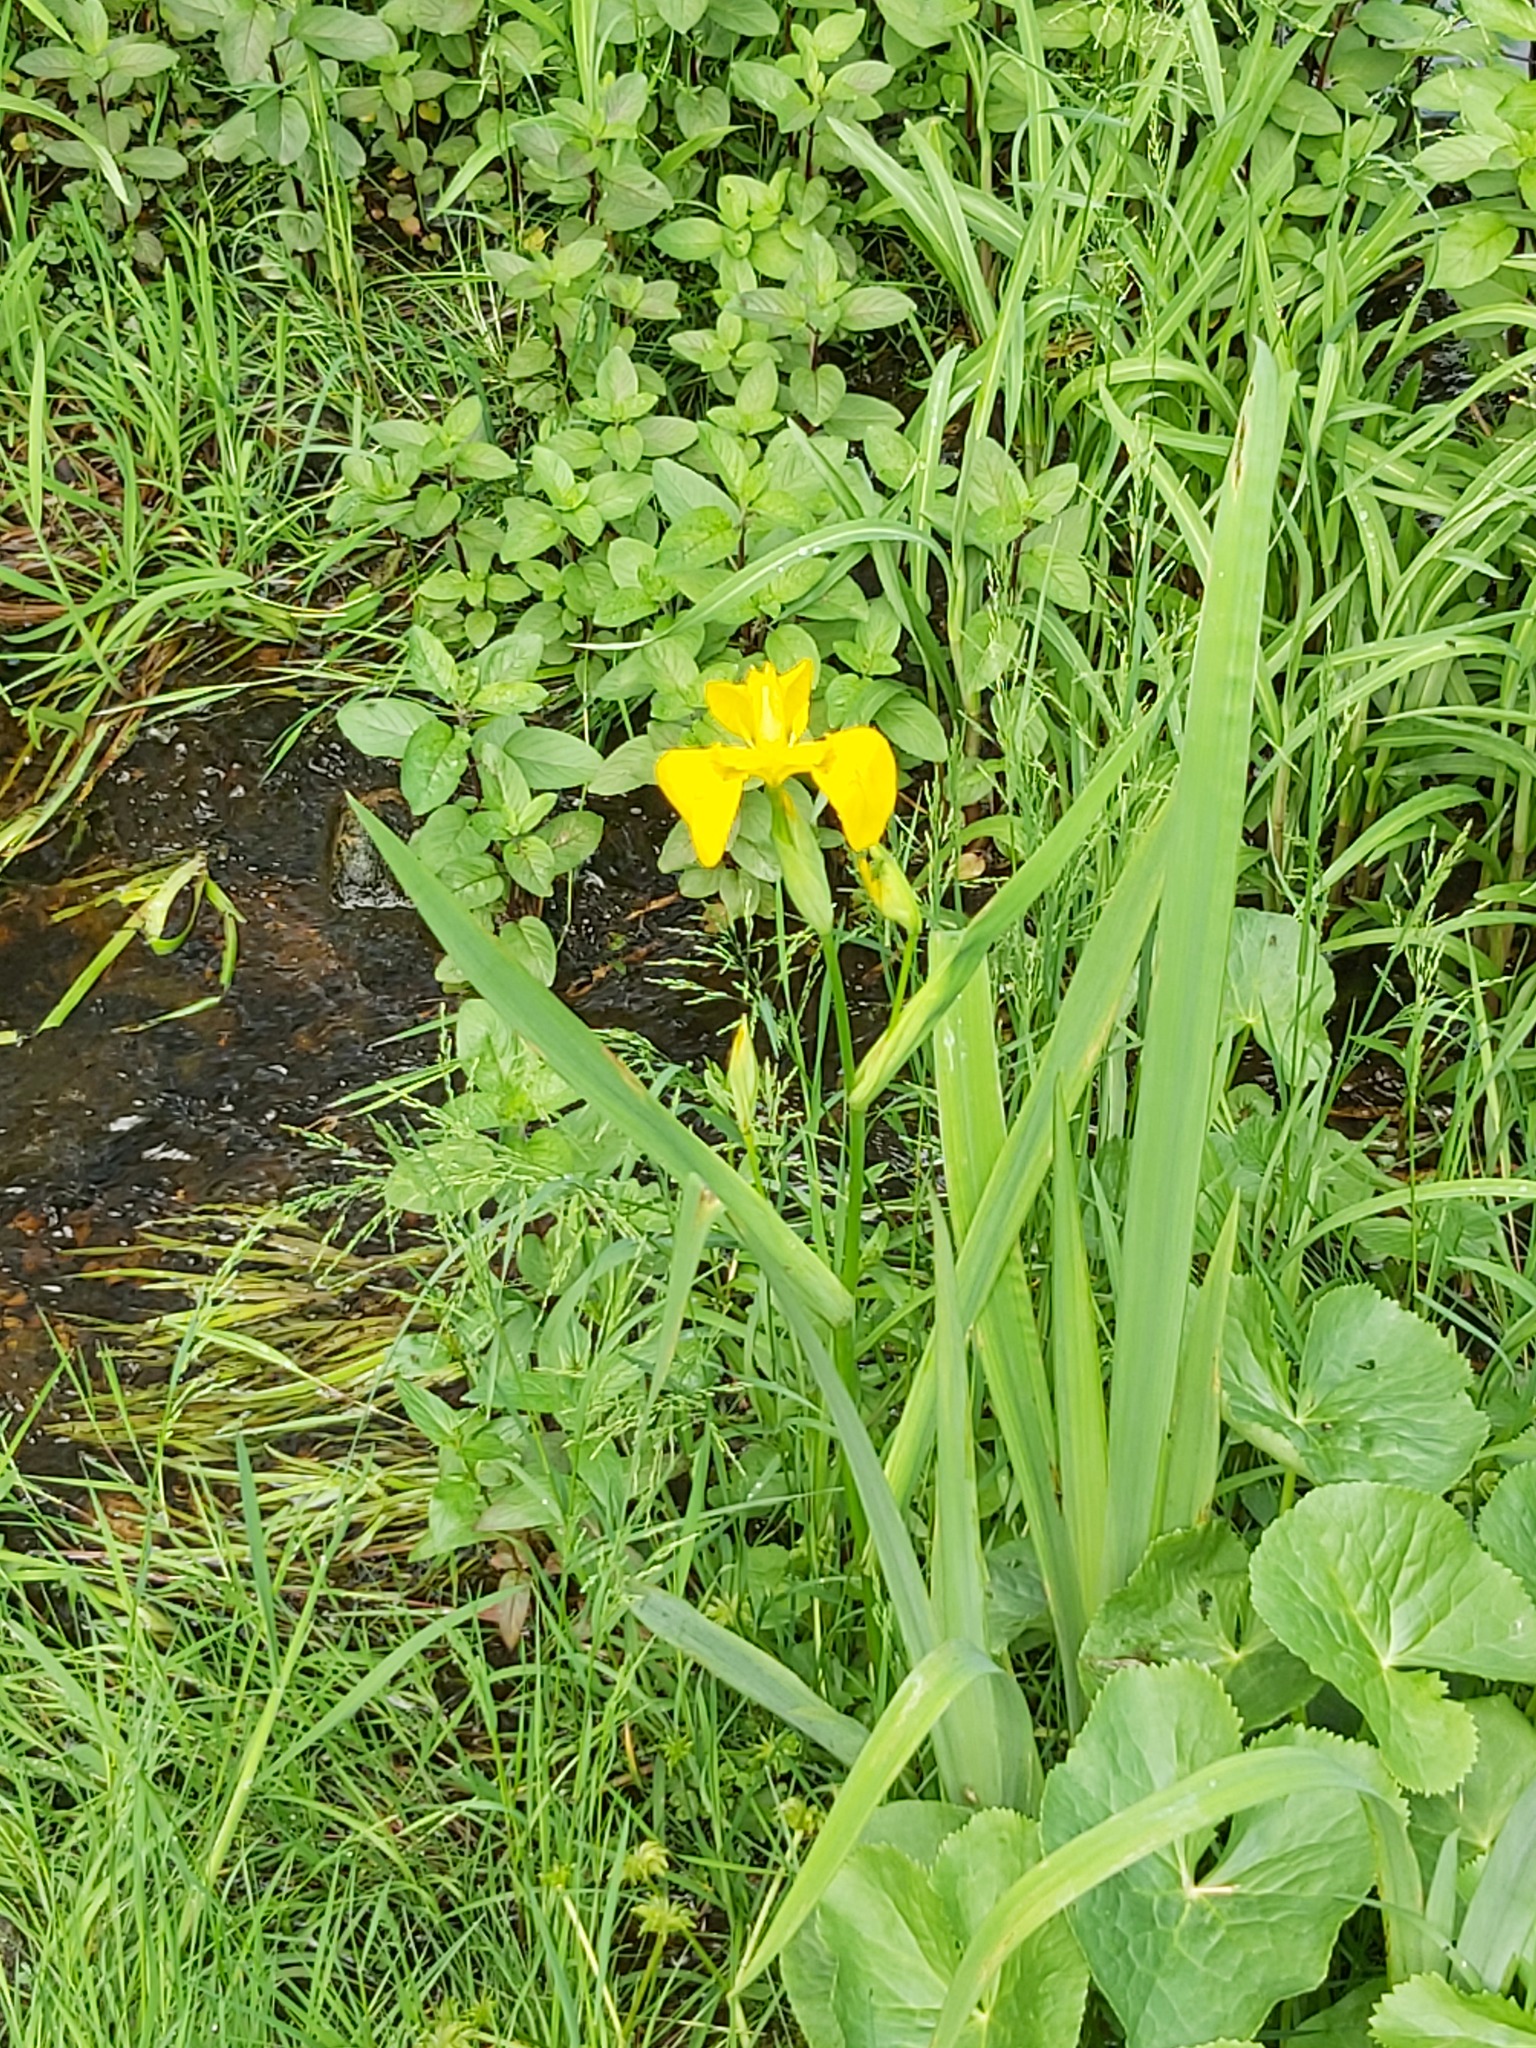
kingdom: Plantae
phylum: Tracheophyta
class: Liliopsida
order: Asparagales
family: Iridaceae
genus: Iris
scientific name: Iris pseudacorus
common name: Yellow flag
